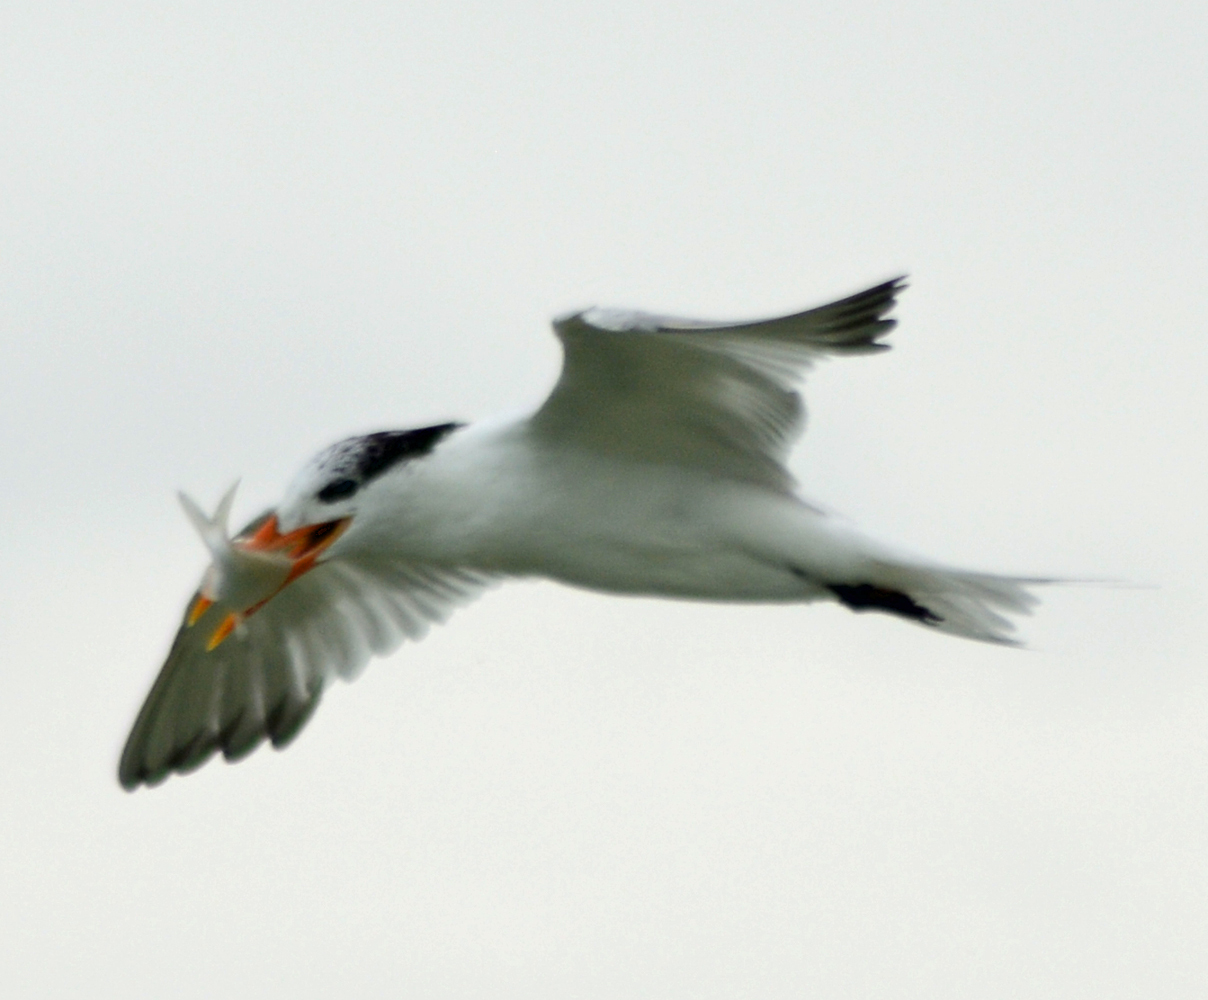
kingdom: Animalia
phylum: Chordata
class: Aves
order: Charadriiformes
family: Laridae
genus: Thalasseus
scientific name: Thalasseus maximus
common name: Royal tern
